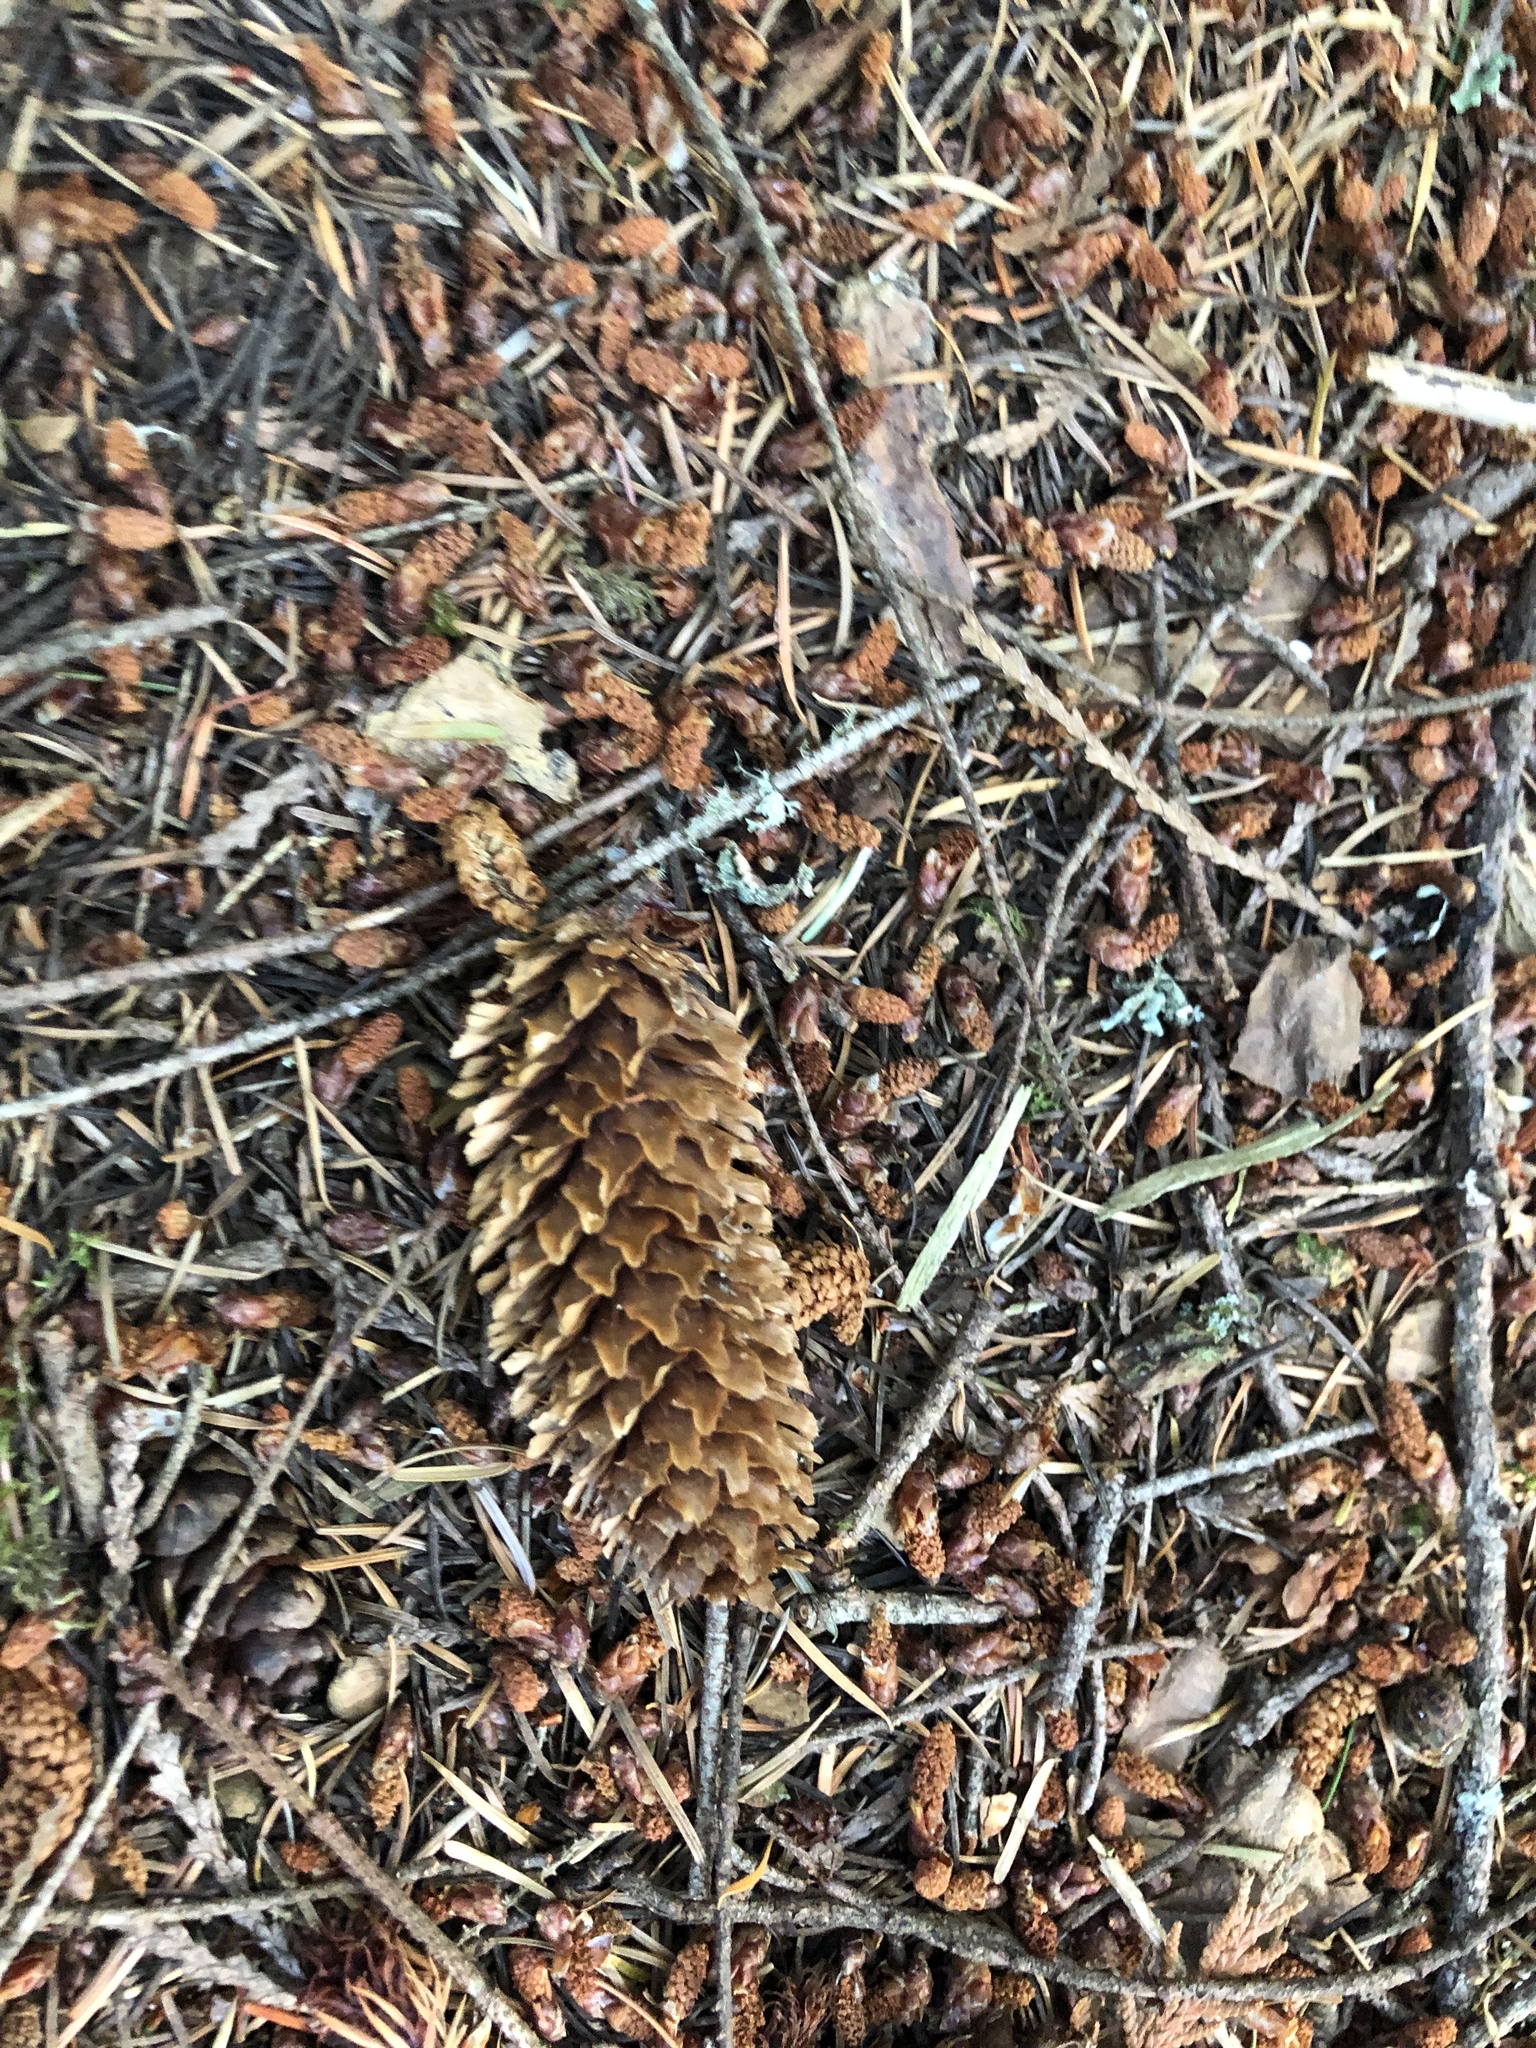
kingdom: Plantae
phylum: Tracheophyta
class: Pinopsida
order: Pinales
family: Pinaceae
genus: Picea
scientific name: Picea sitchensis
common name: Sitka spruce
